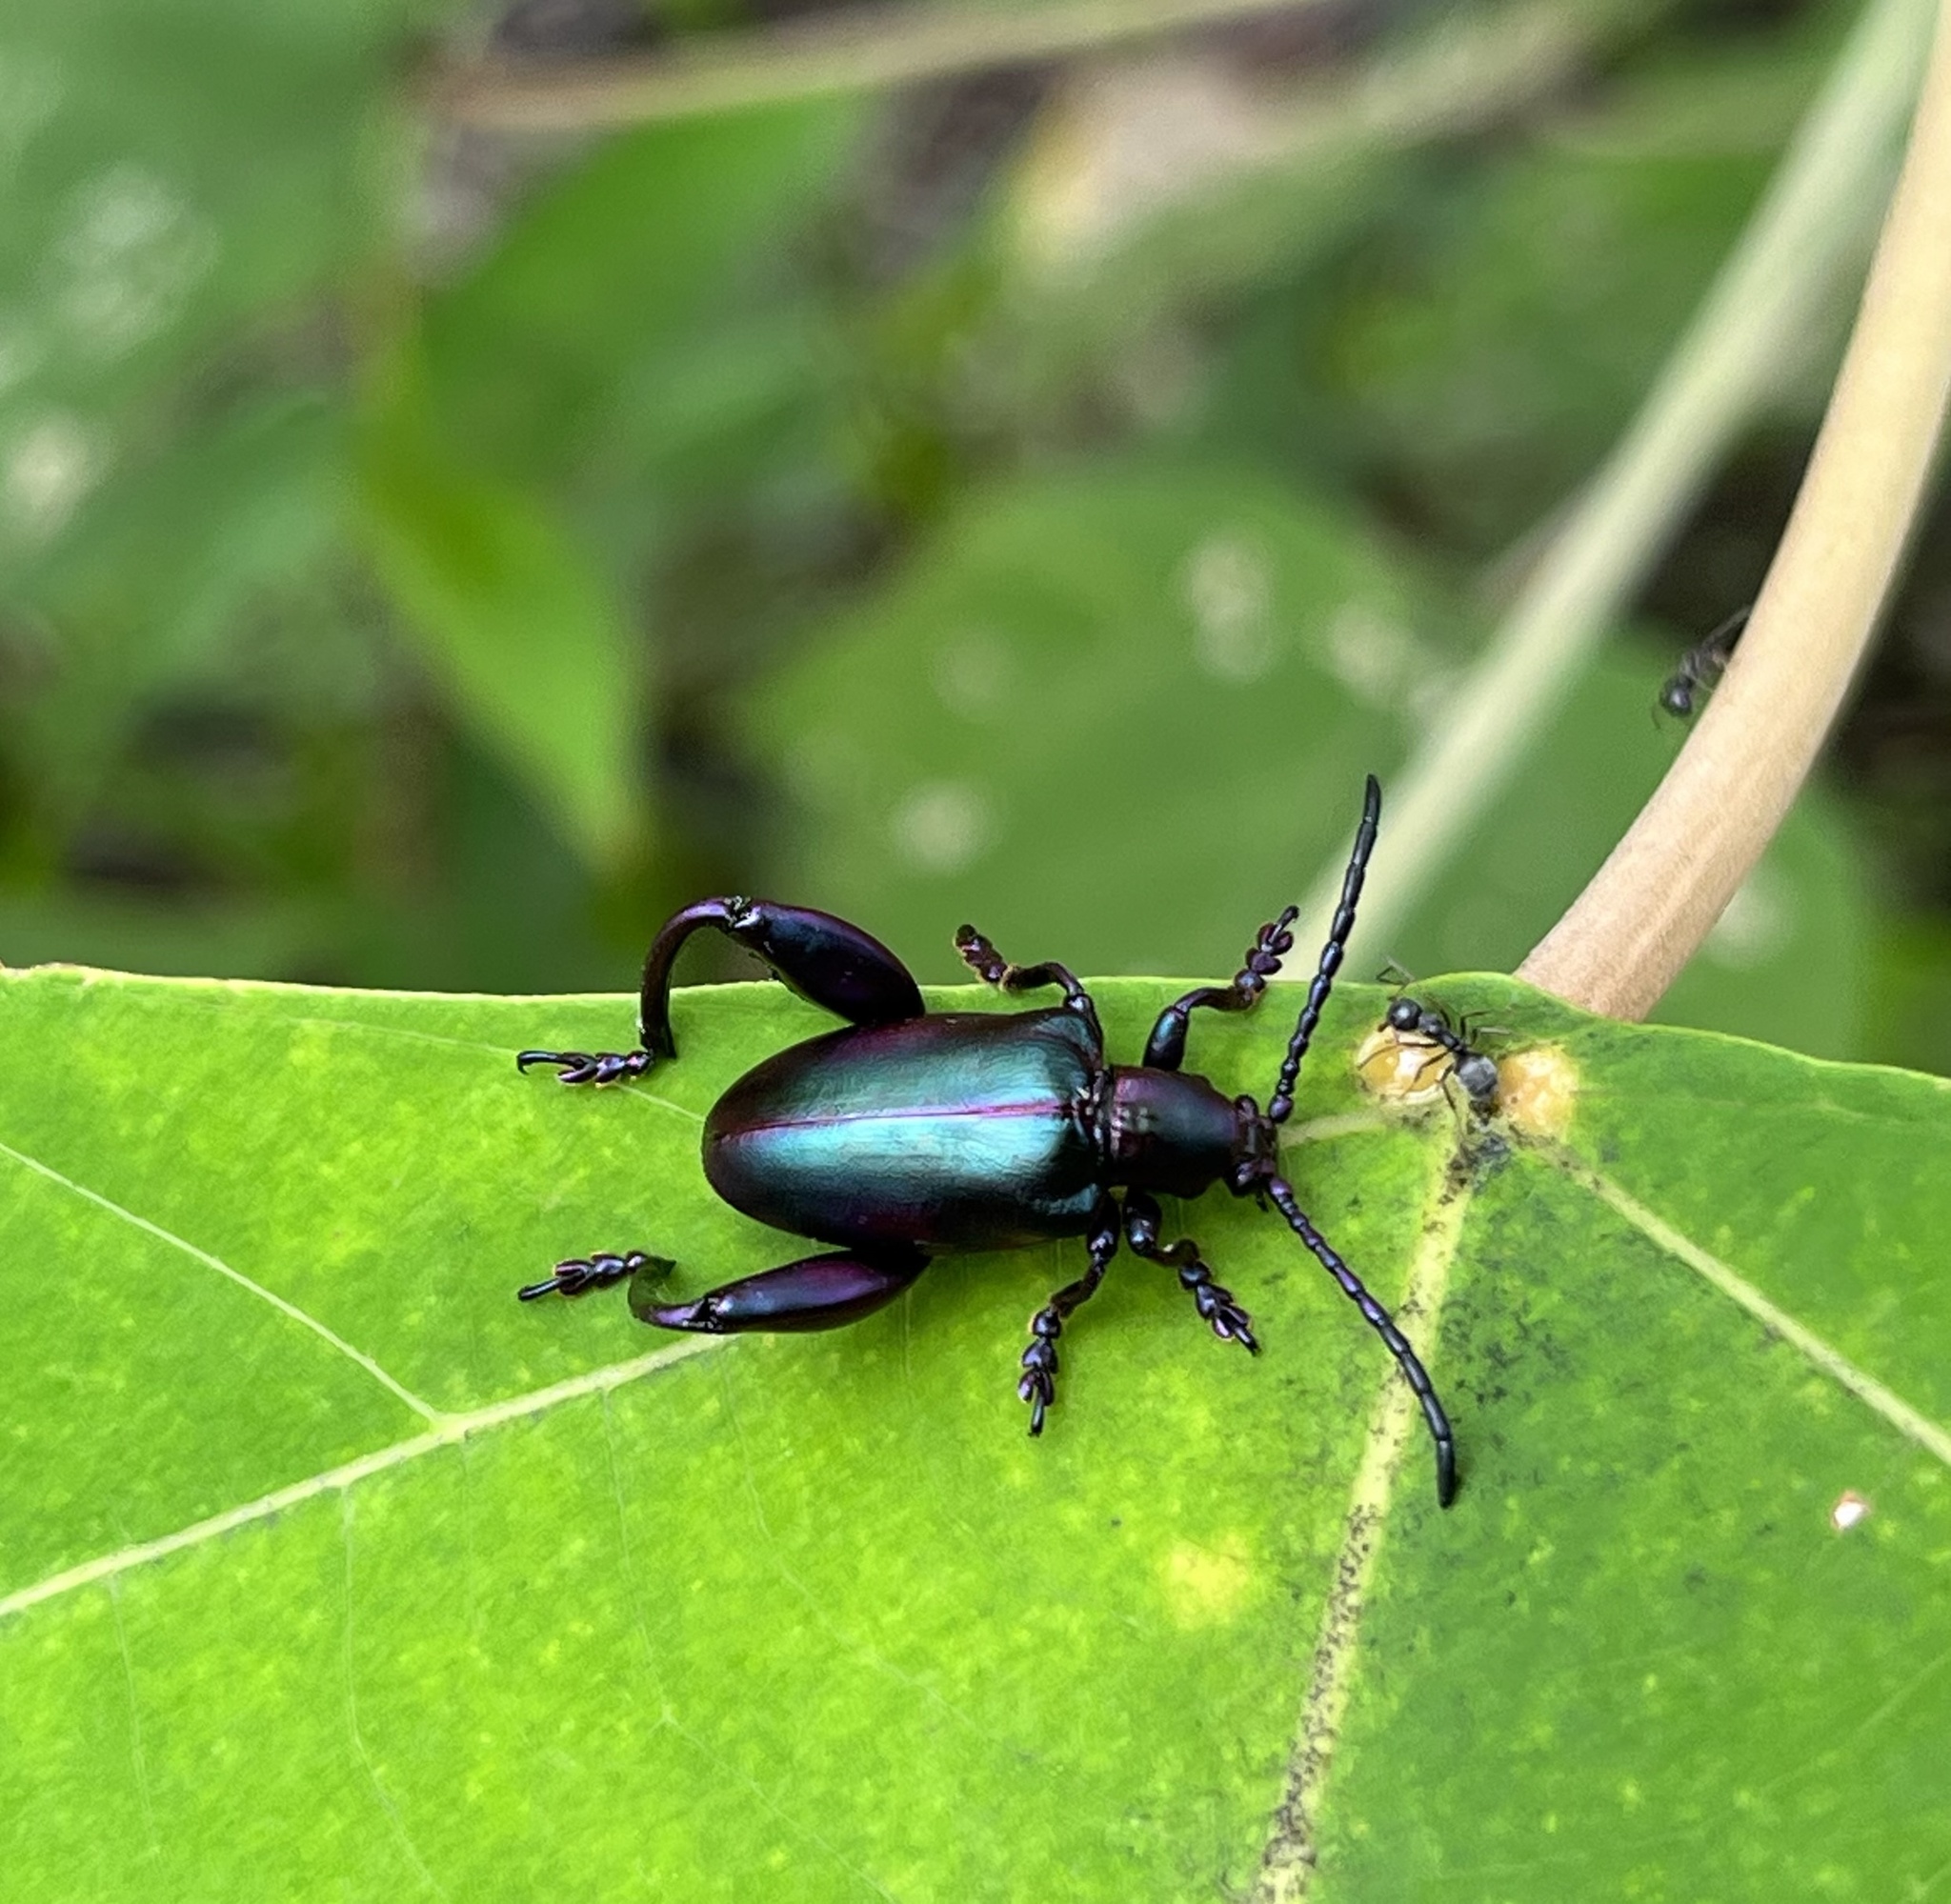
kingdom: Animalia
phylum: Arthropoda
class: Insecta
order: Coleoptera
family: Chrysomelidae
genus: Sagra
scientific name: Sagra femorata
